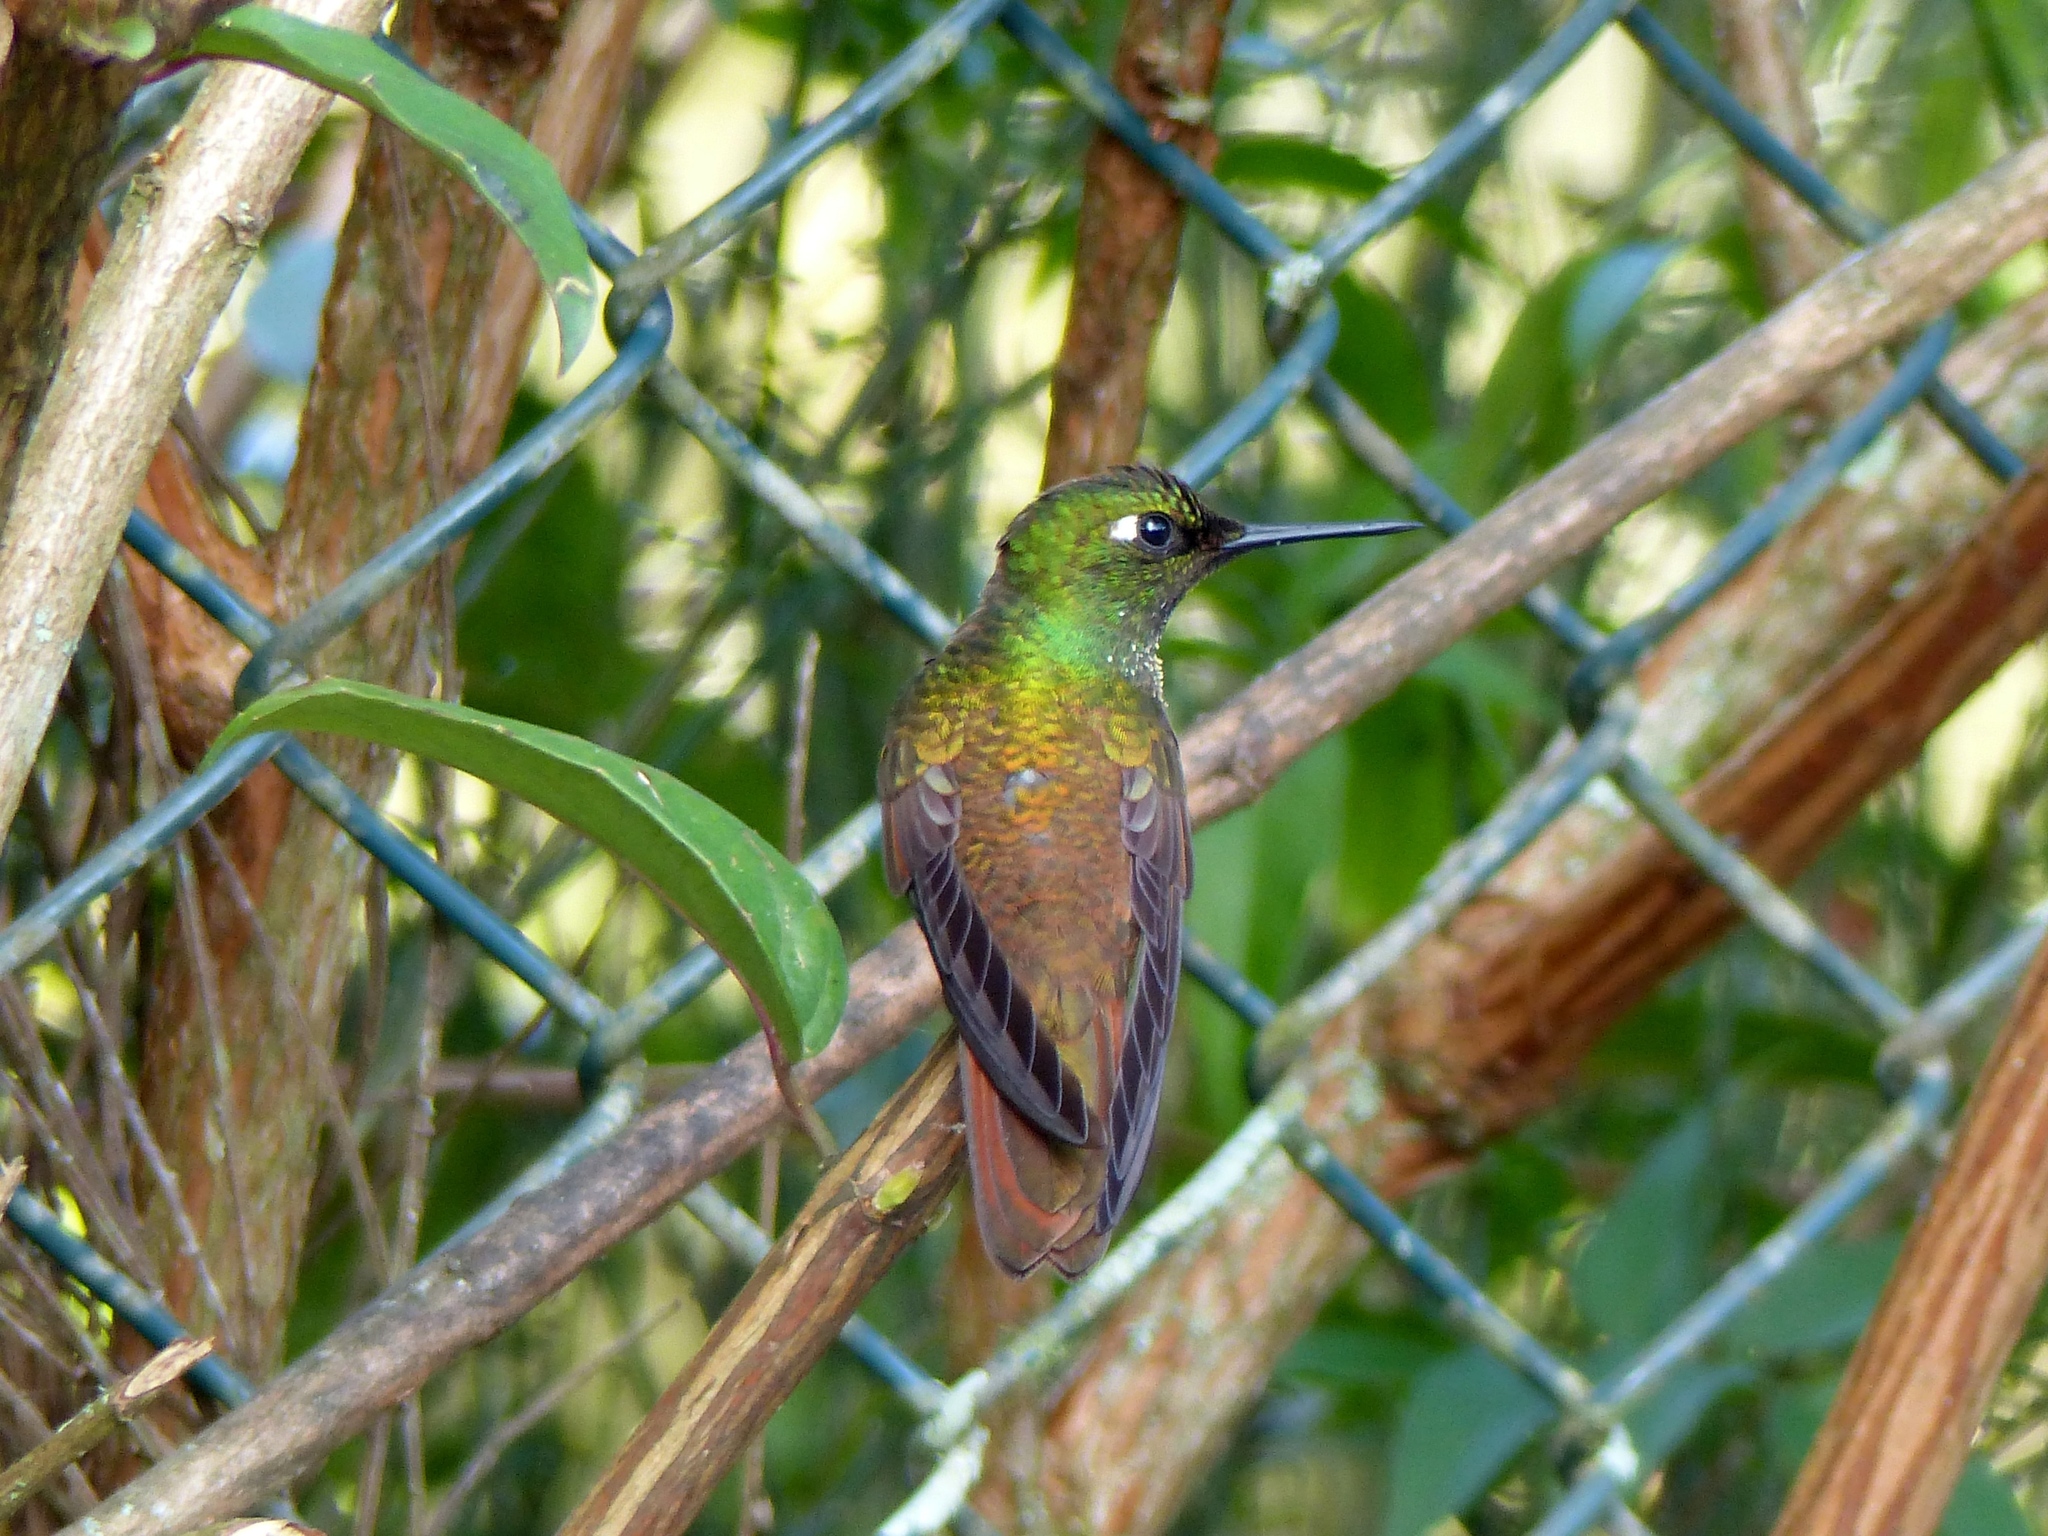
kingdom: Animalia
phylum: Chordata
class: Aves
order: Apodiformes
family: Trochilidae
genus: Clytolaema
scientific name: Clytolaema rubricauda
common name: Brazilian ruby
